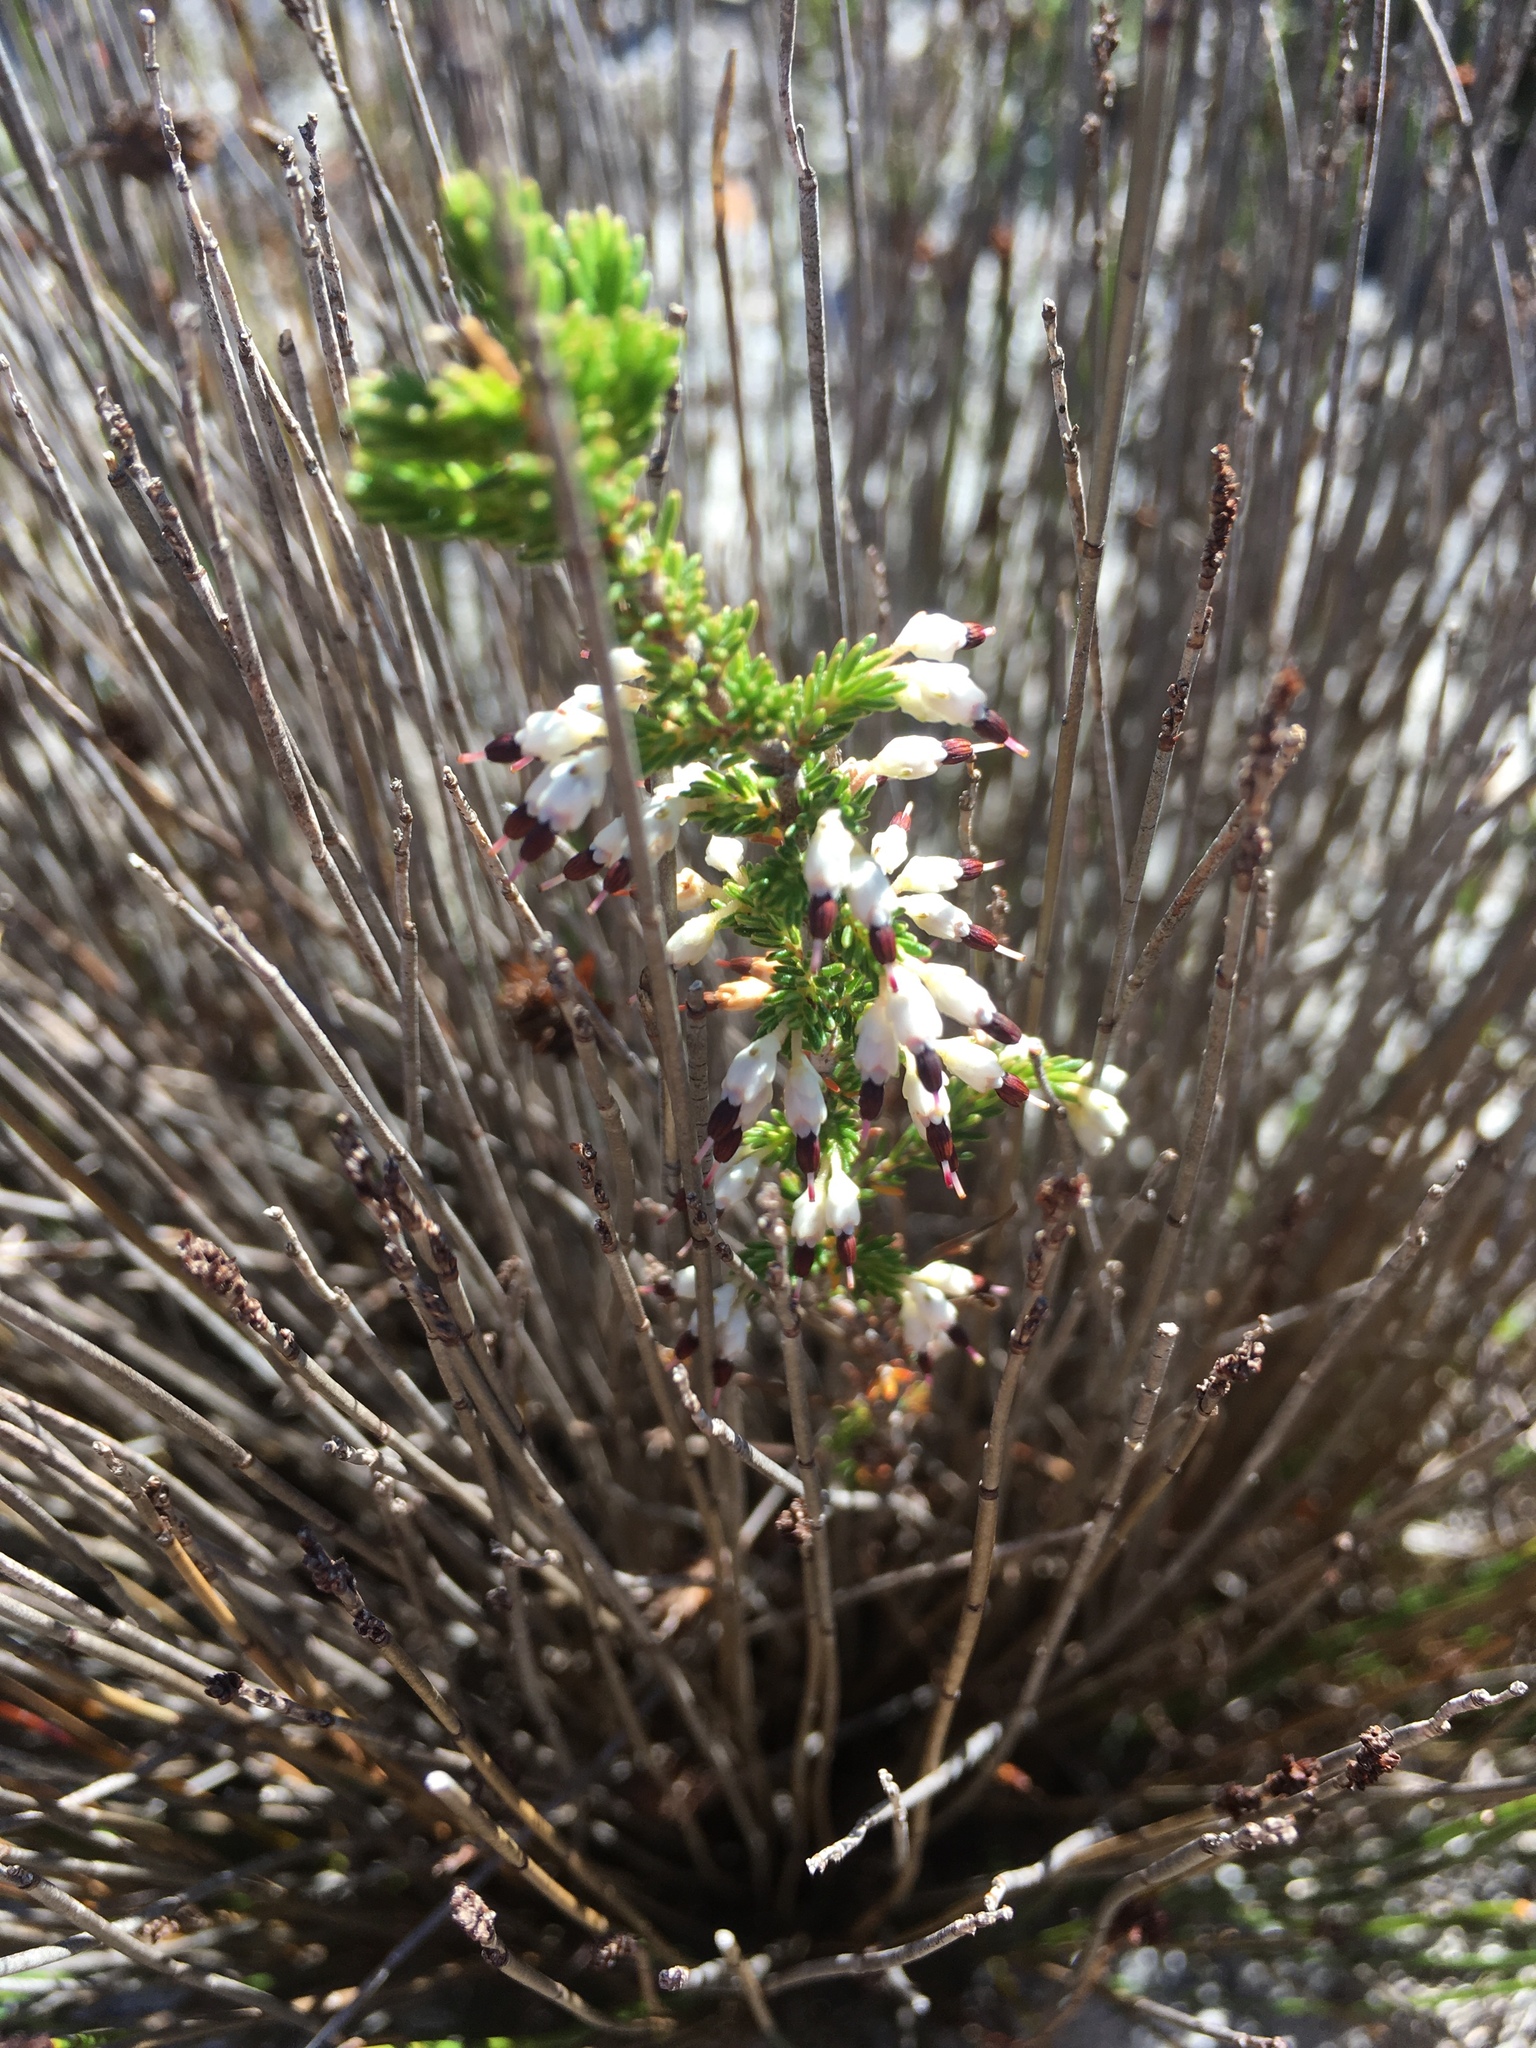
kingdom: Plantae
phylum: Tracheophyta
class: Magnoliopsida
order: Ericales
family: Ericaceae
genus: Erica
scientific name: Erica imbricata
